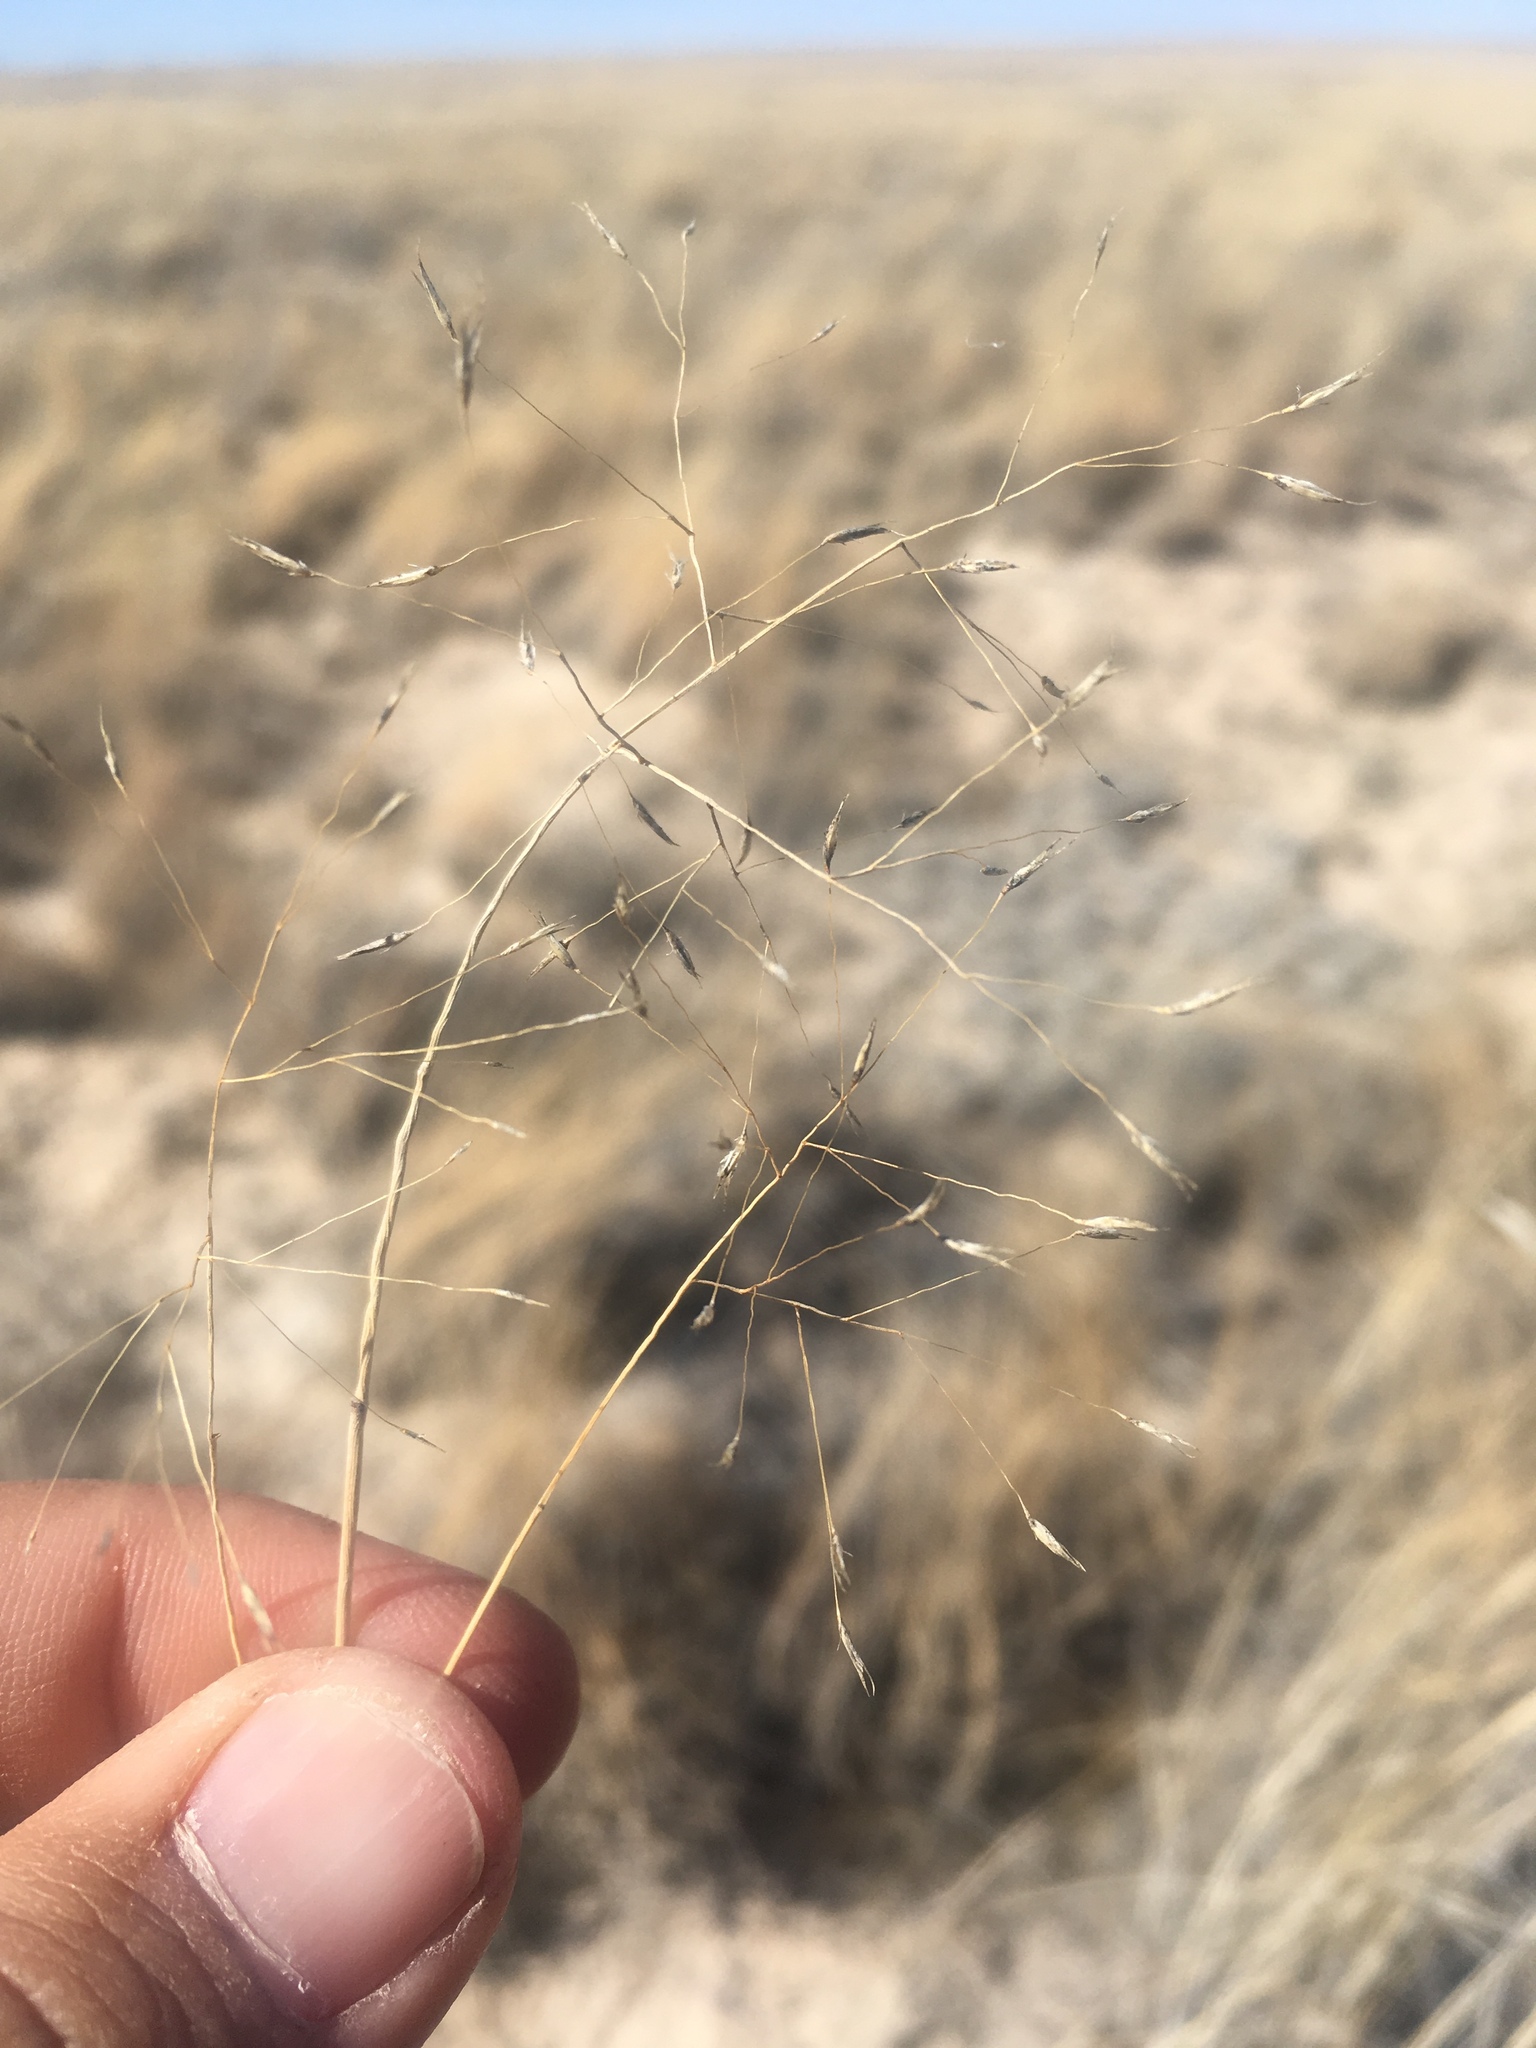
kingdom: Plantae
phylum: Tracheophyta
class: Liliopsida
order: Poales
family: Poaceae
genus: Muhlenbergia
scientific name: Muhlenbergia pungens
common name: Sandhill muhly
